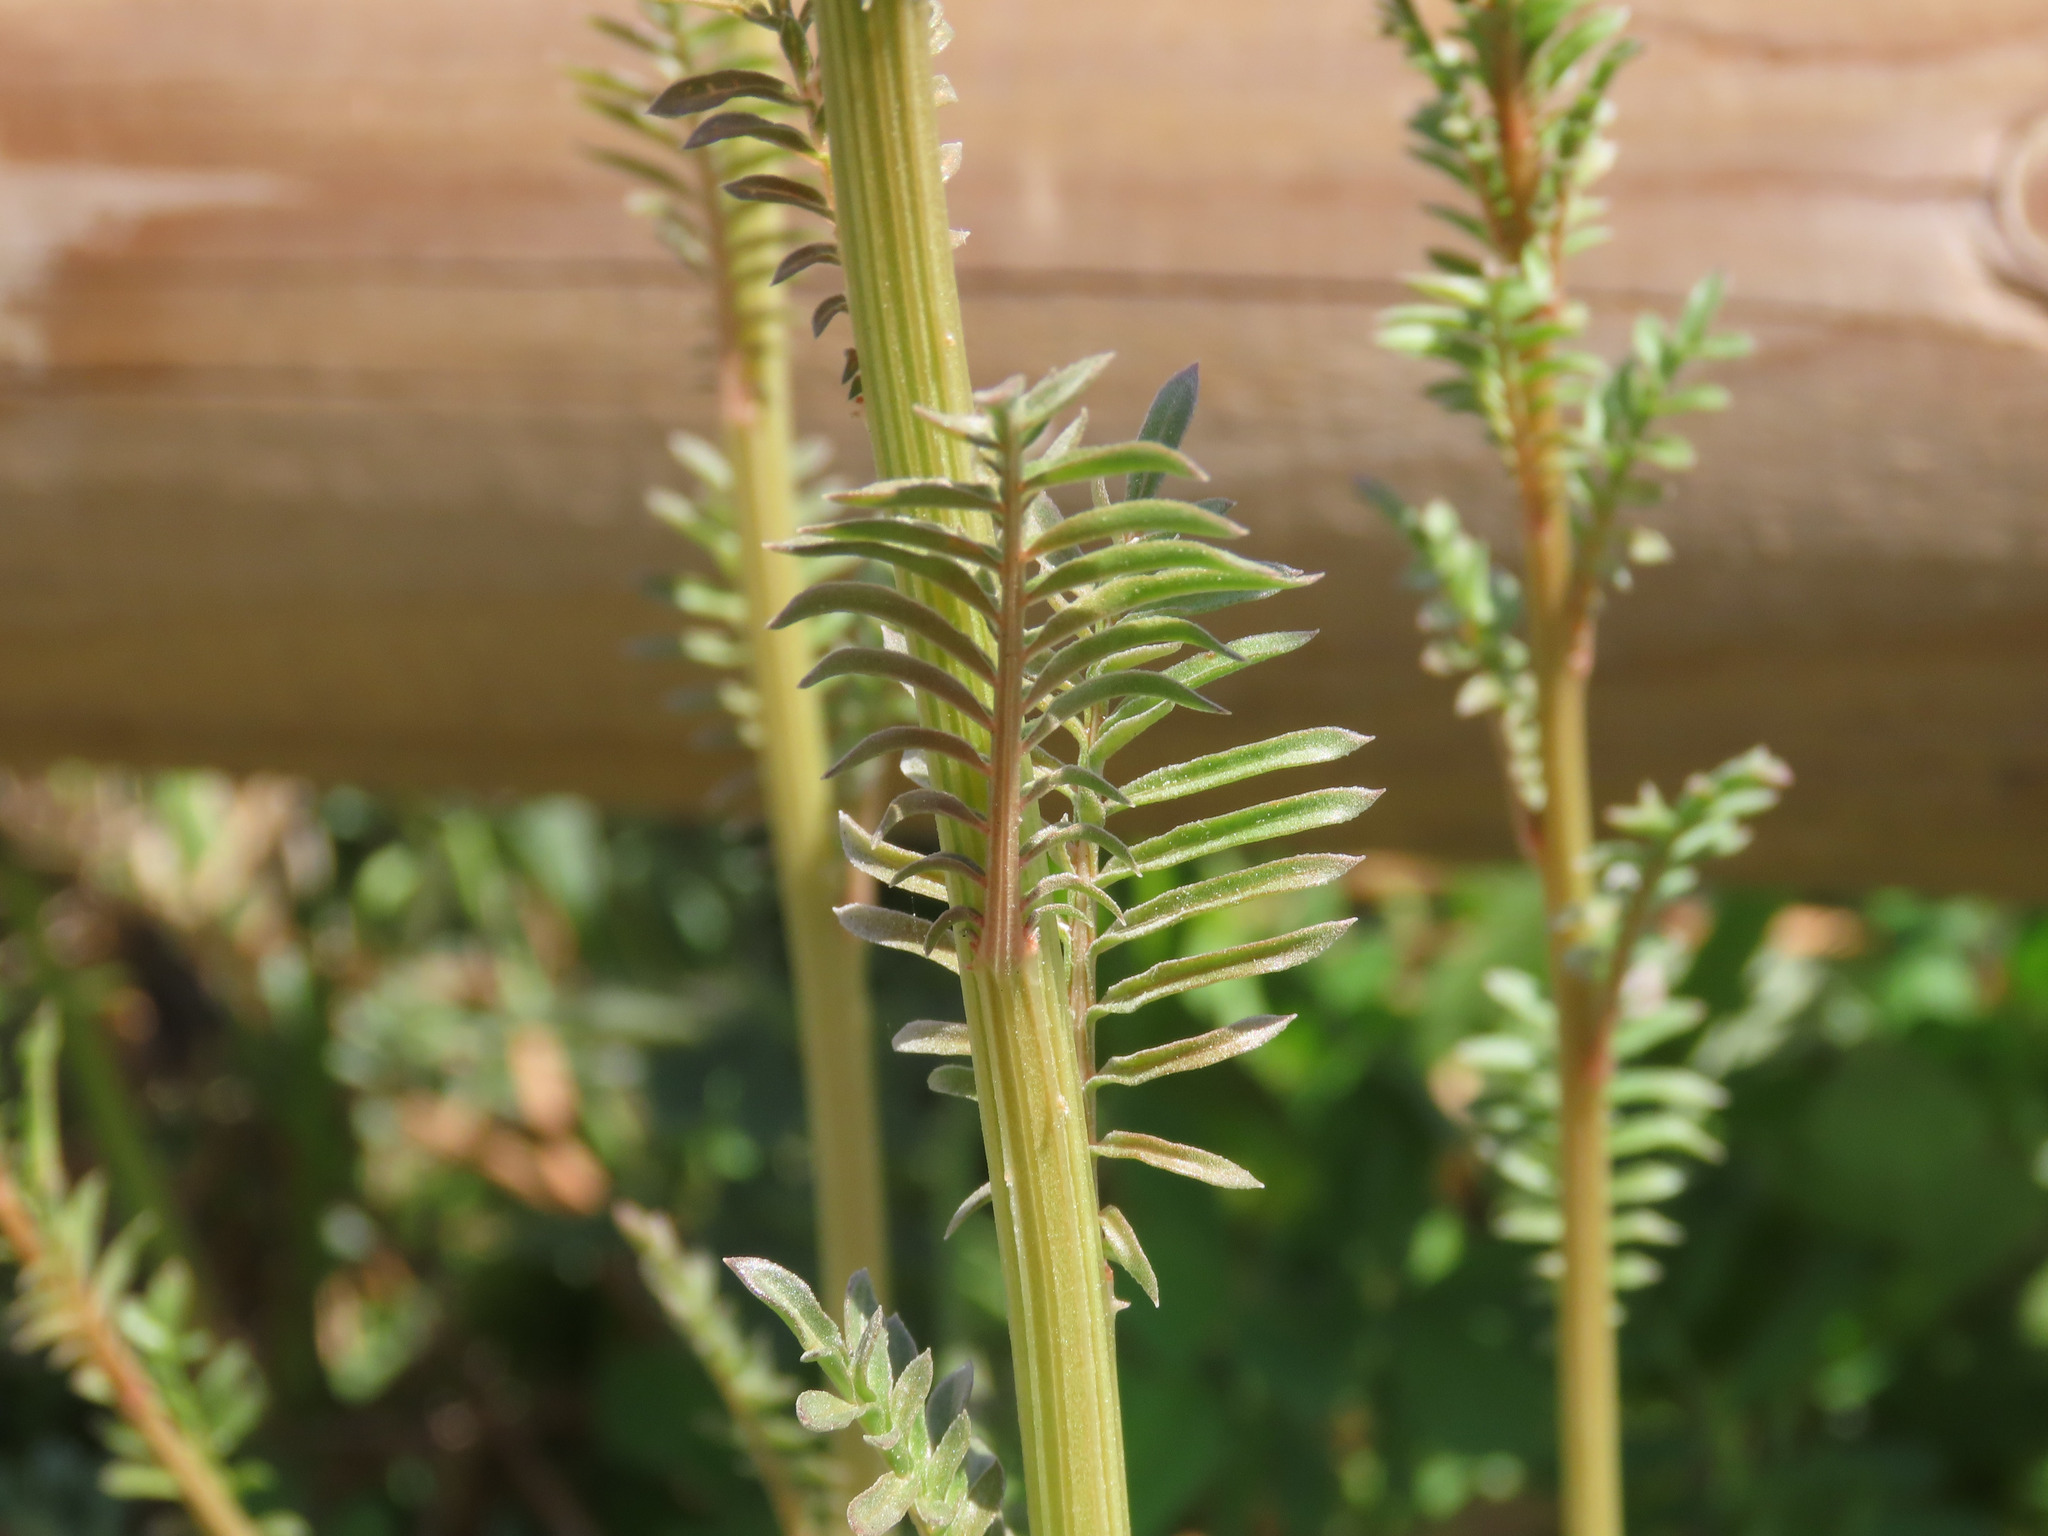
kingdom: Plantae
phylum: Tracheophyta
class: Magnoliopsida
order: Brassicales
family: Resedaceae
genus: Reseda
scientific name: Reseda alba
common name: White mignonette
